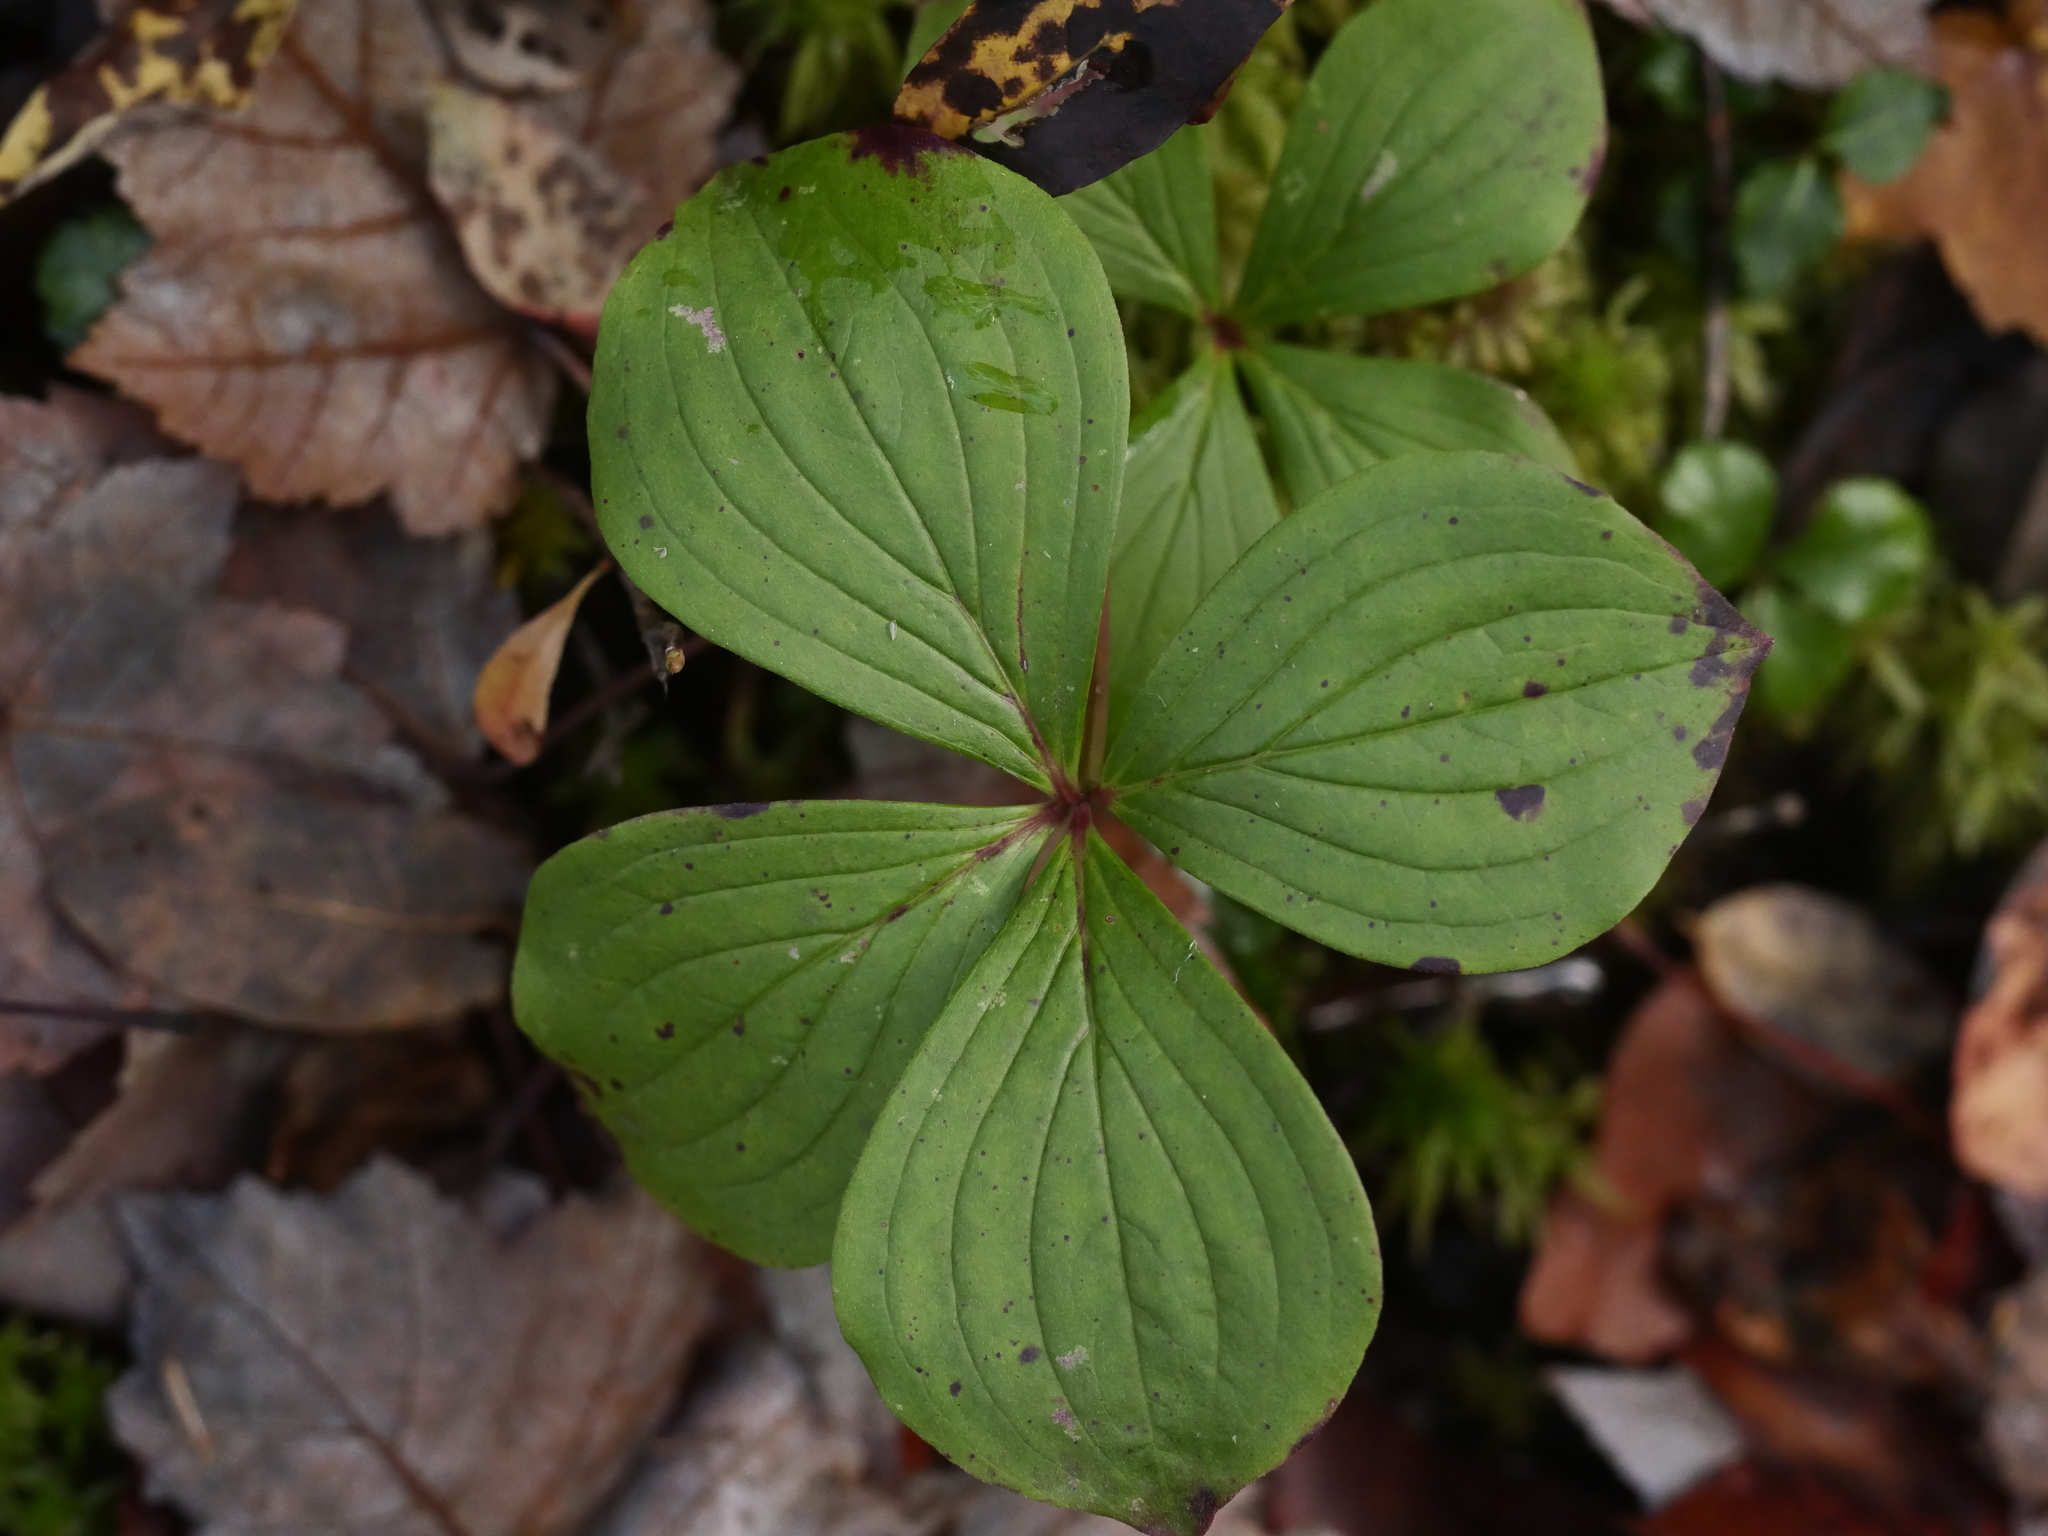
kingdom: Plantae
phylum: Tracheophyta
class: Magnoliopsida
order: Cornales
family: Cornaceae
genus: Cornus
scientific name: Cornus canadensis
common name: Creeping dogwood
